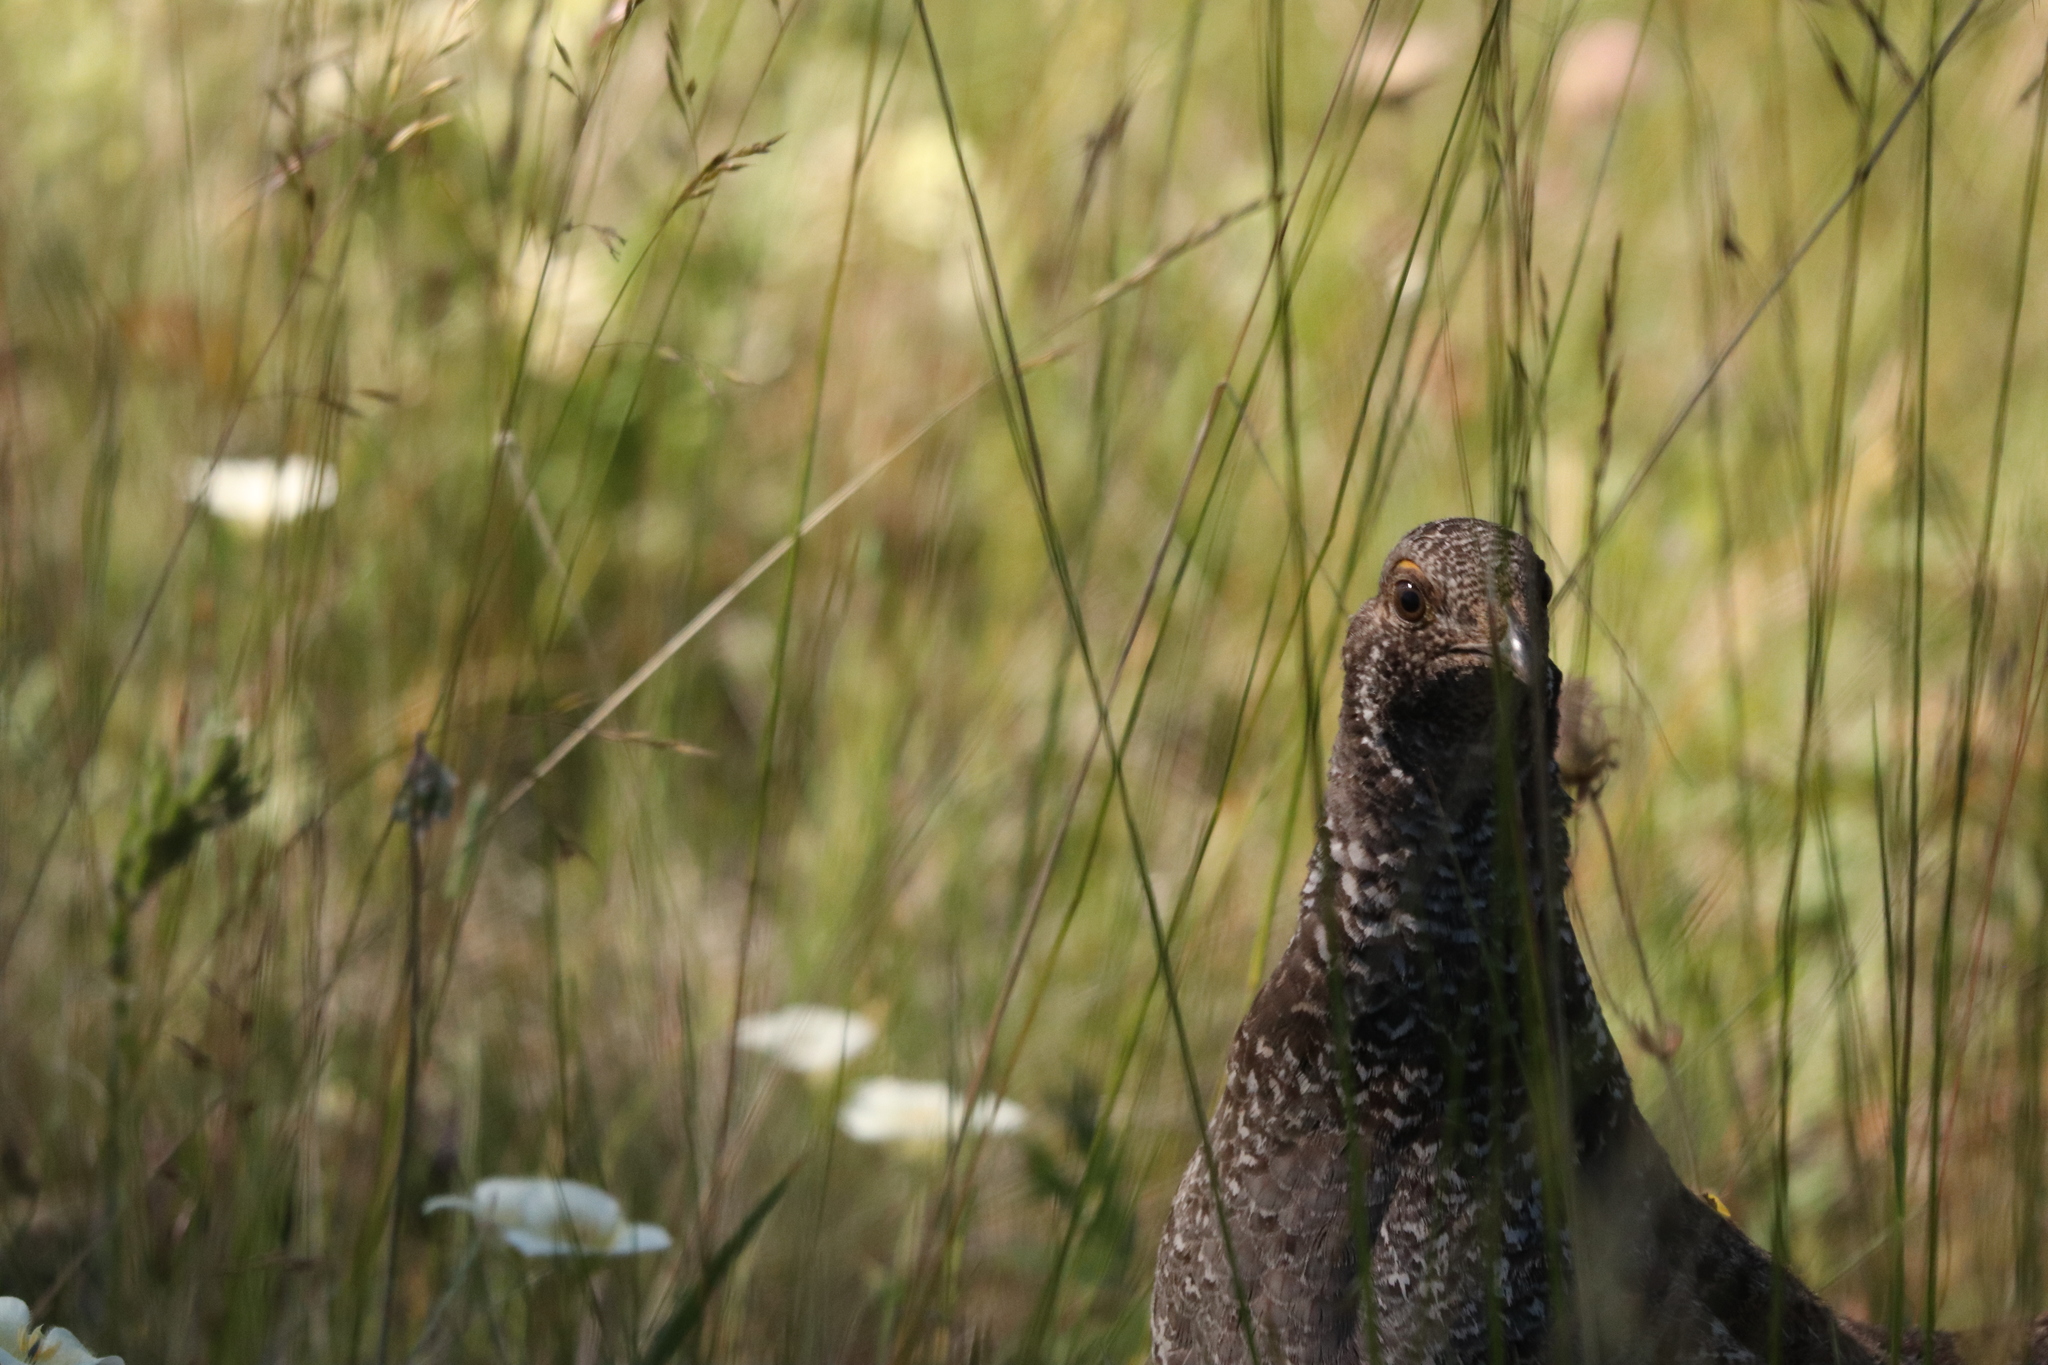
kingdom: Animalia
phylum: Chordata
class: Aves
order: Galliformes
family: Phasianidae
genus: Dendragapus
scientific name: Dendragapus obscurus
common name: Dusky grouse
